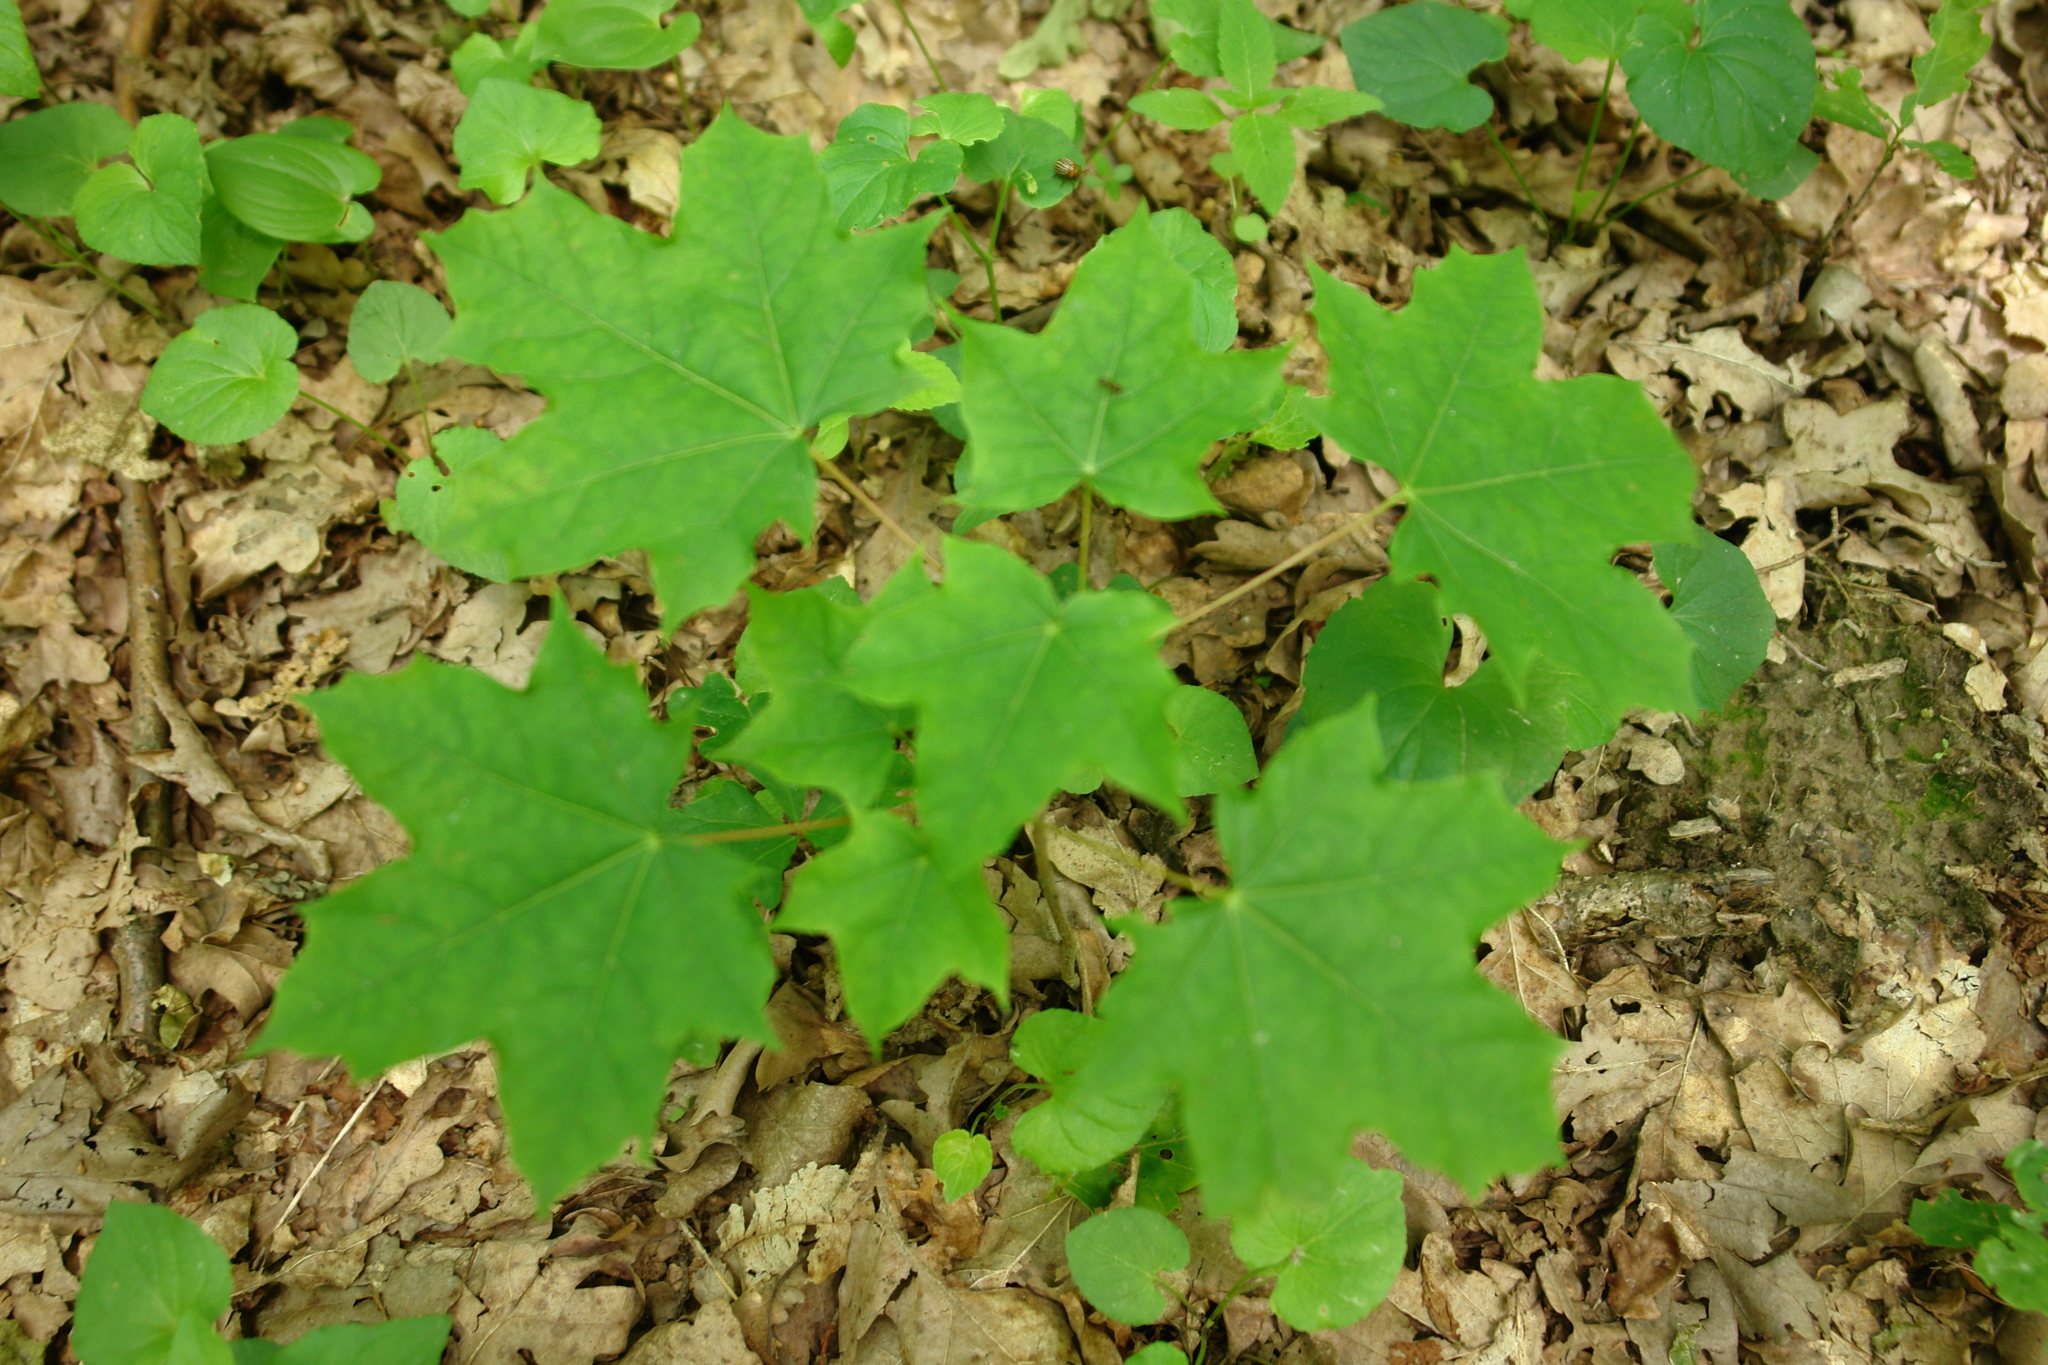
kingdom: Plantae
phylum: Tracheophyta
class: Magnoliopsida
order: Sapindales
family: Sapindaceae
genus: Acer
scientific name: Acer platanoides
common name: Norway maple
